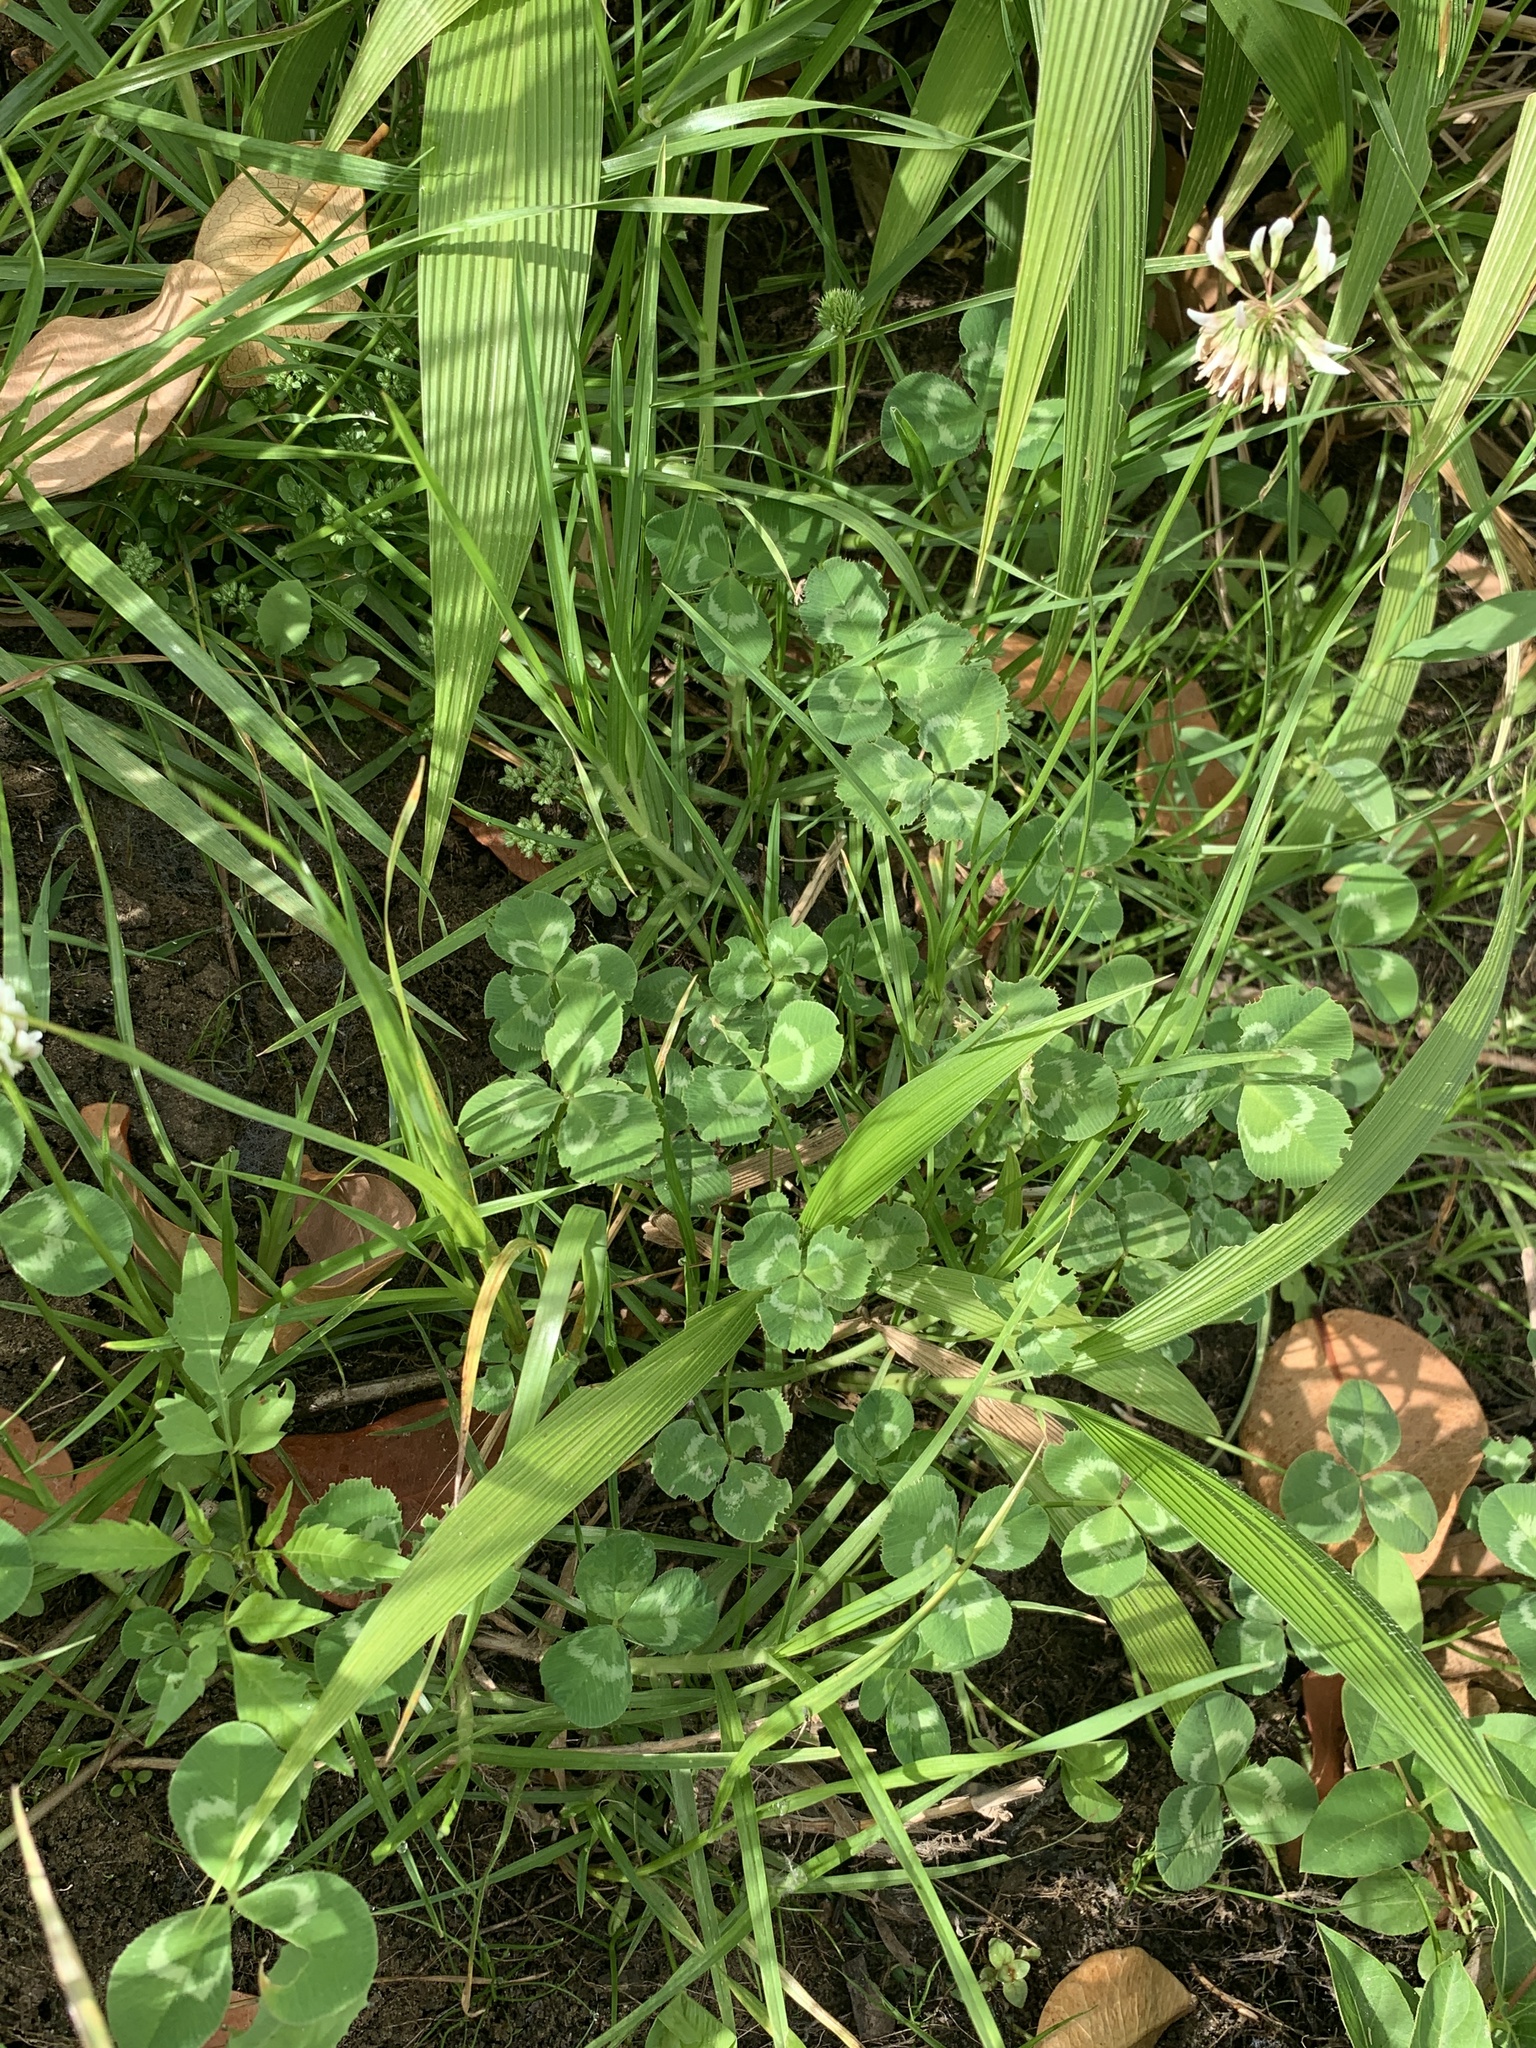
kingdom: Plantae
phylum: Tracheophyta
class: Magnoliopsida
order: Fabales
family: Fabaceae
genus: Trifolium
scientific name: Trifolium repens
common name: White clover
